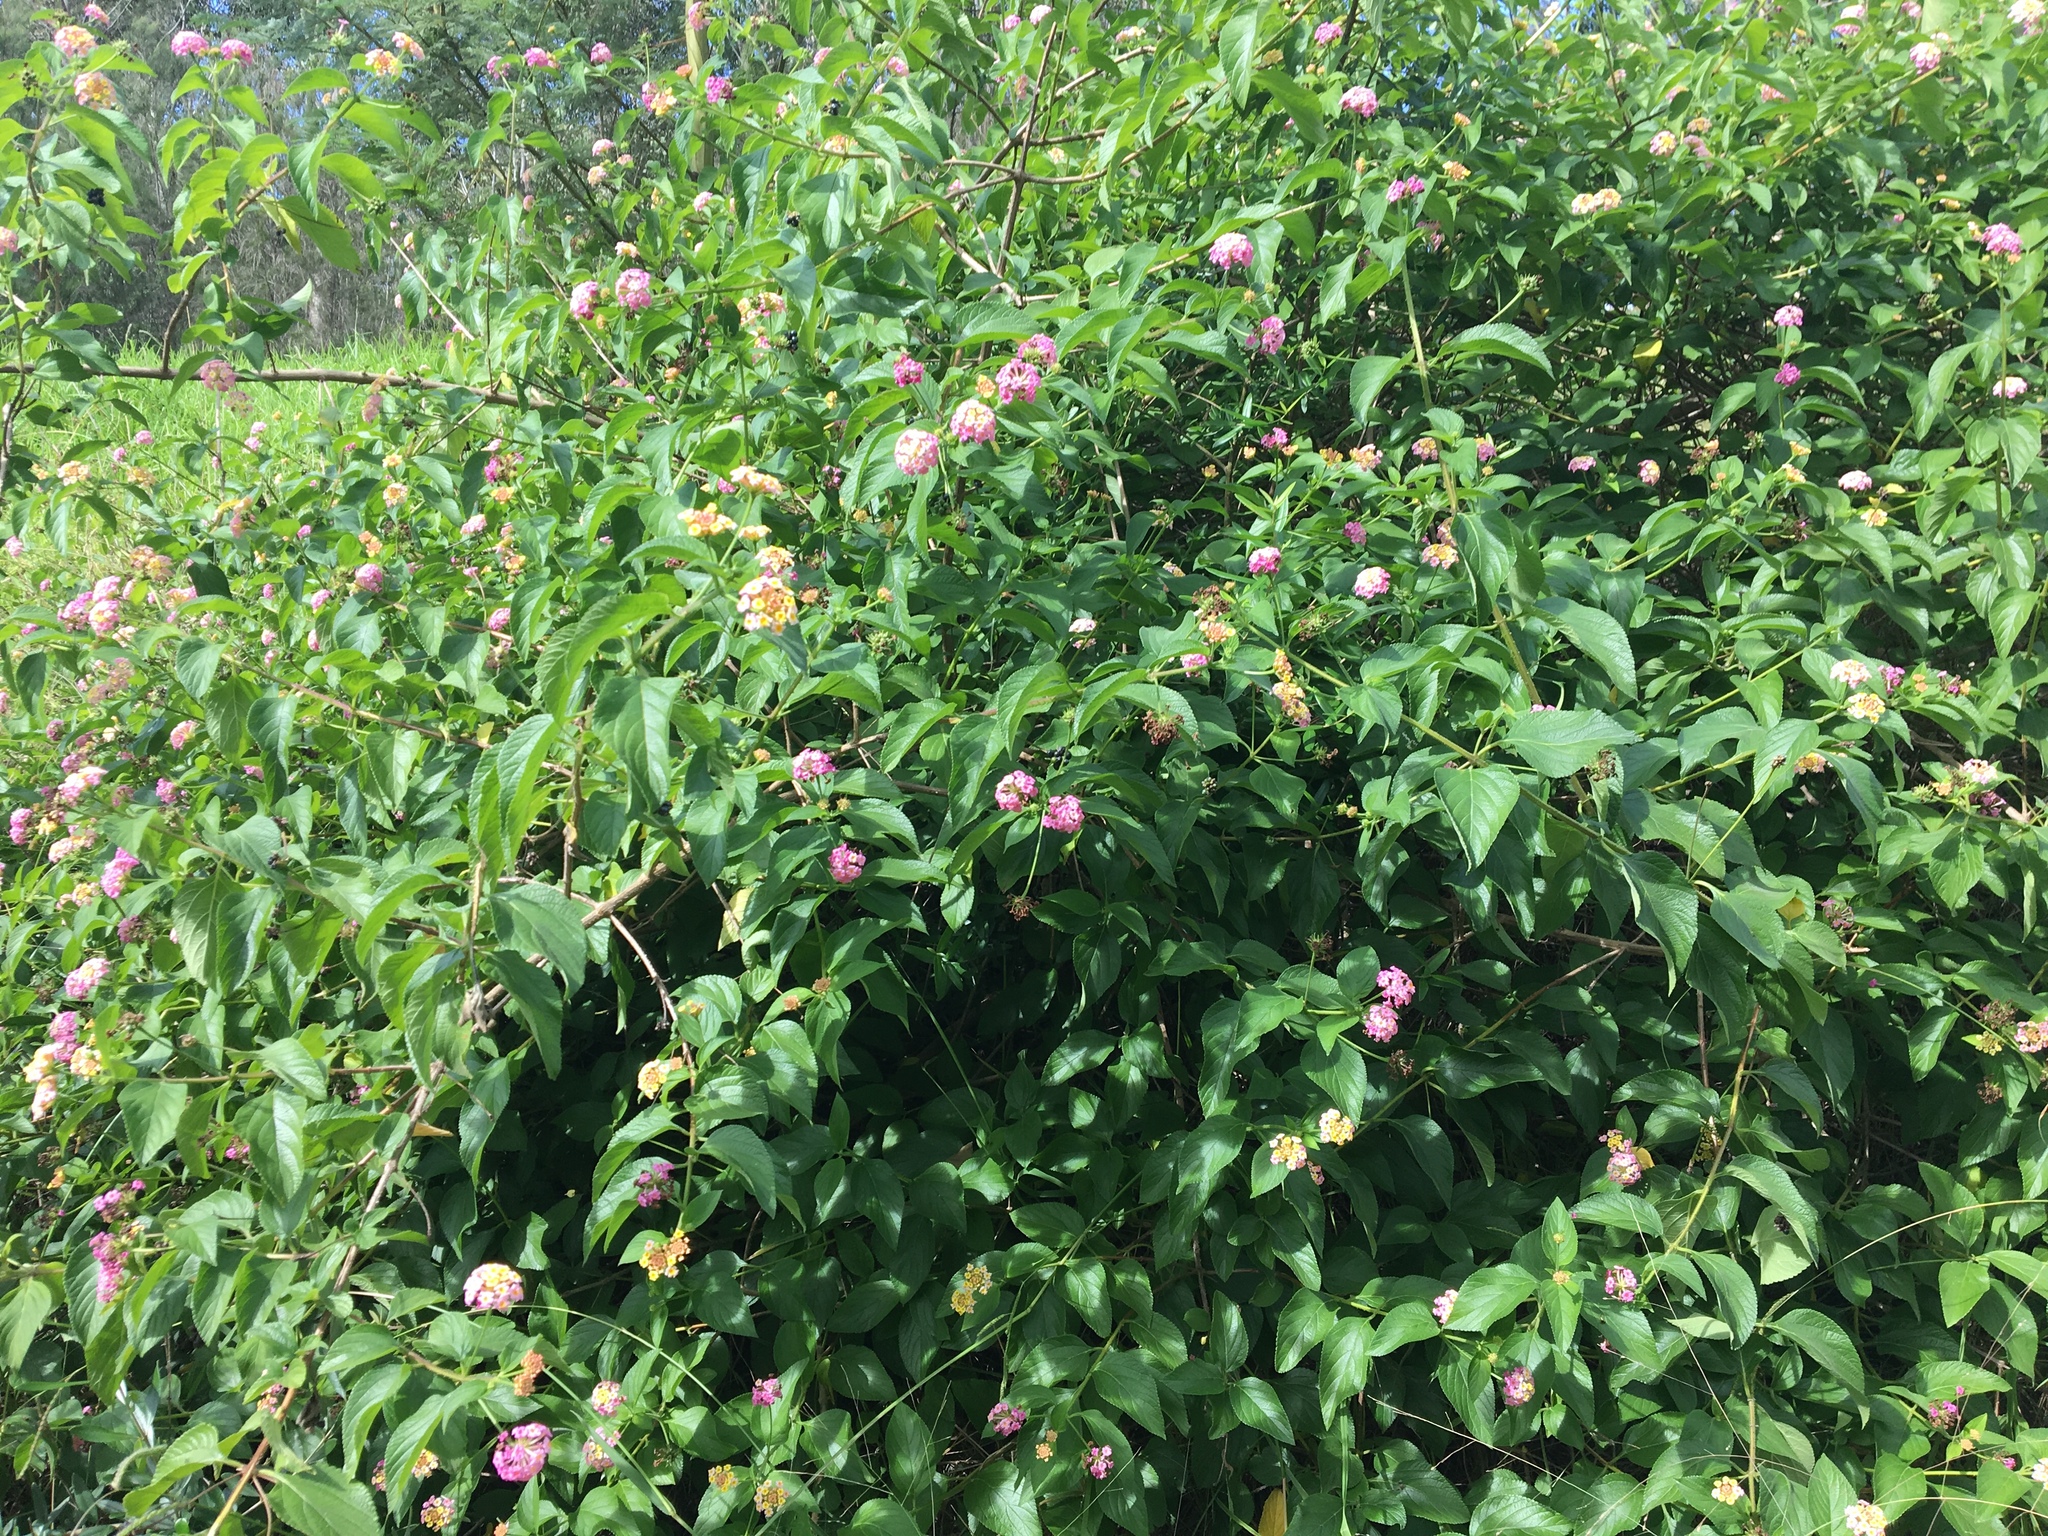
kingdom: Plantae
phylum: Tracheophyta
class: Magnoliopsida
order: Lamiales
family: Verbenaceae
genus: Lantana
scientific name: Lantana camara
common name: Lantana
